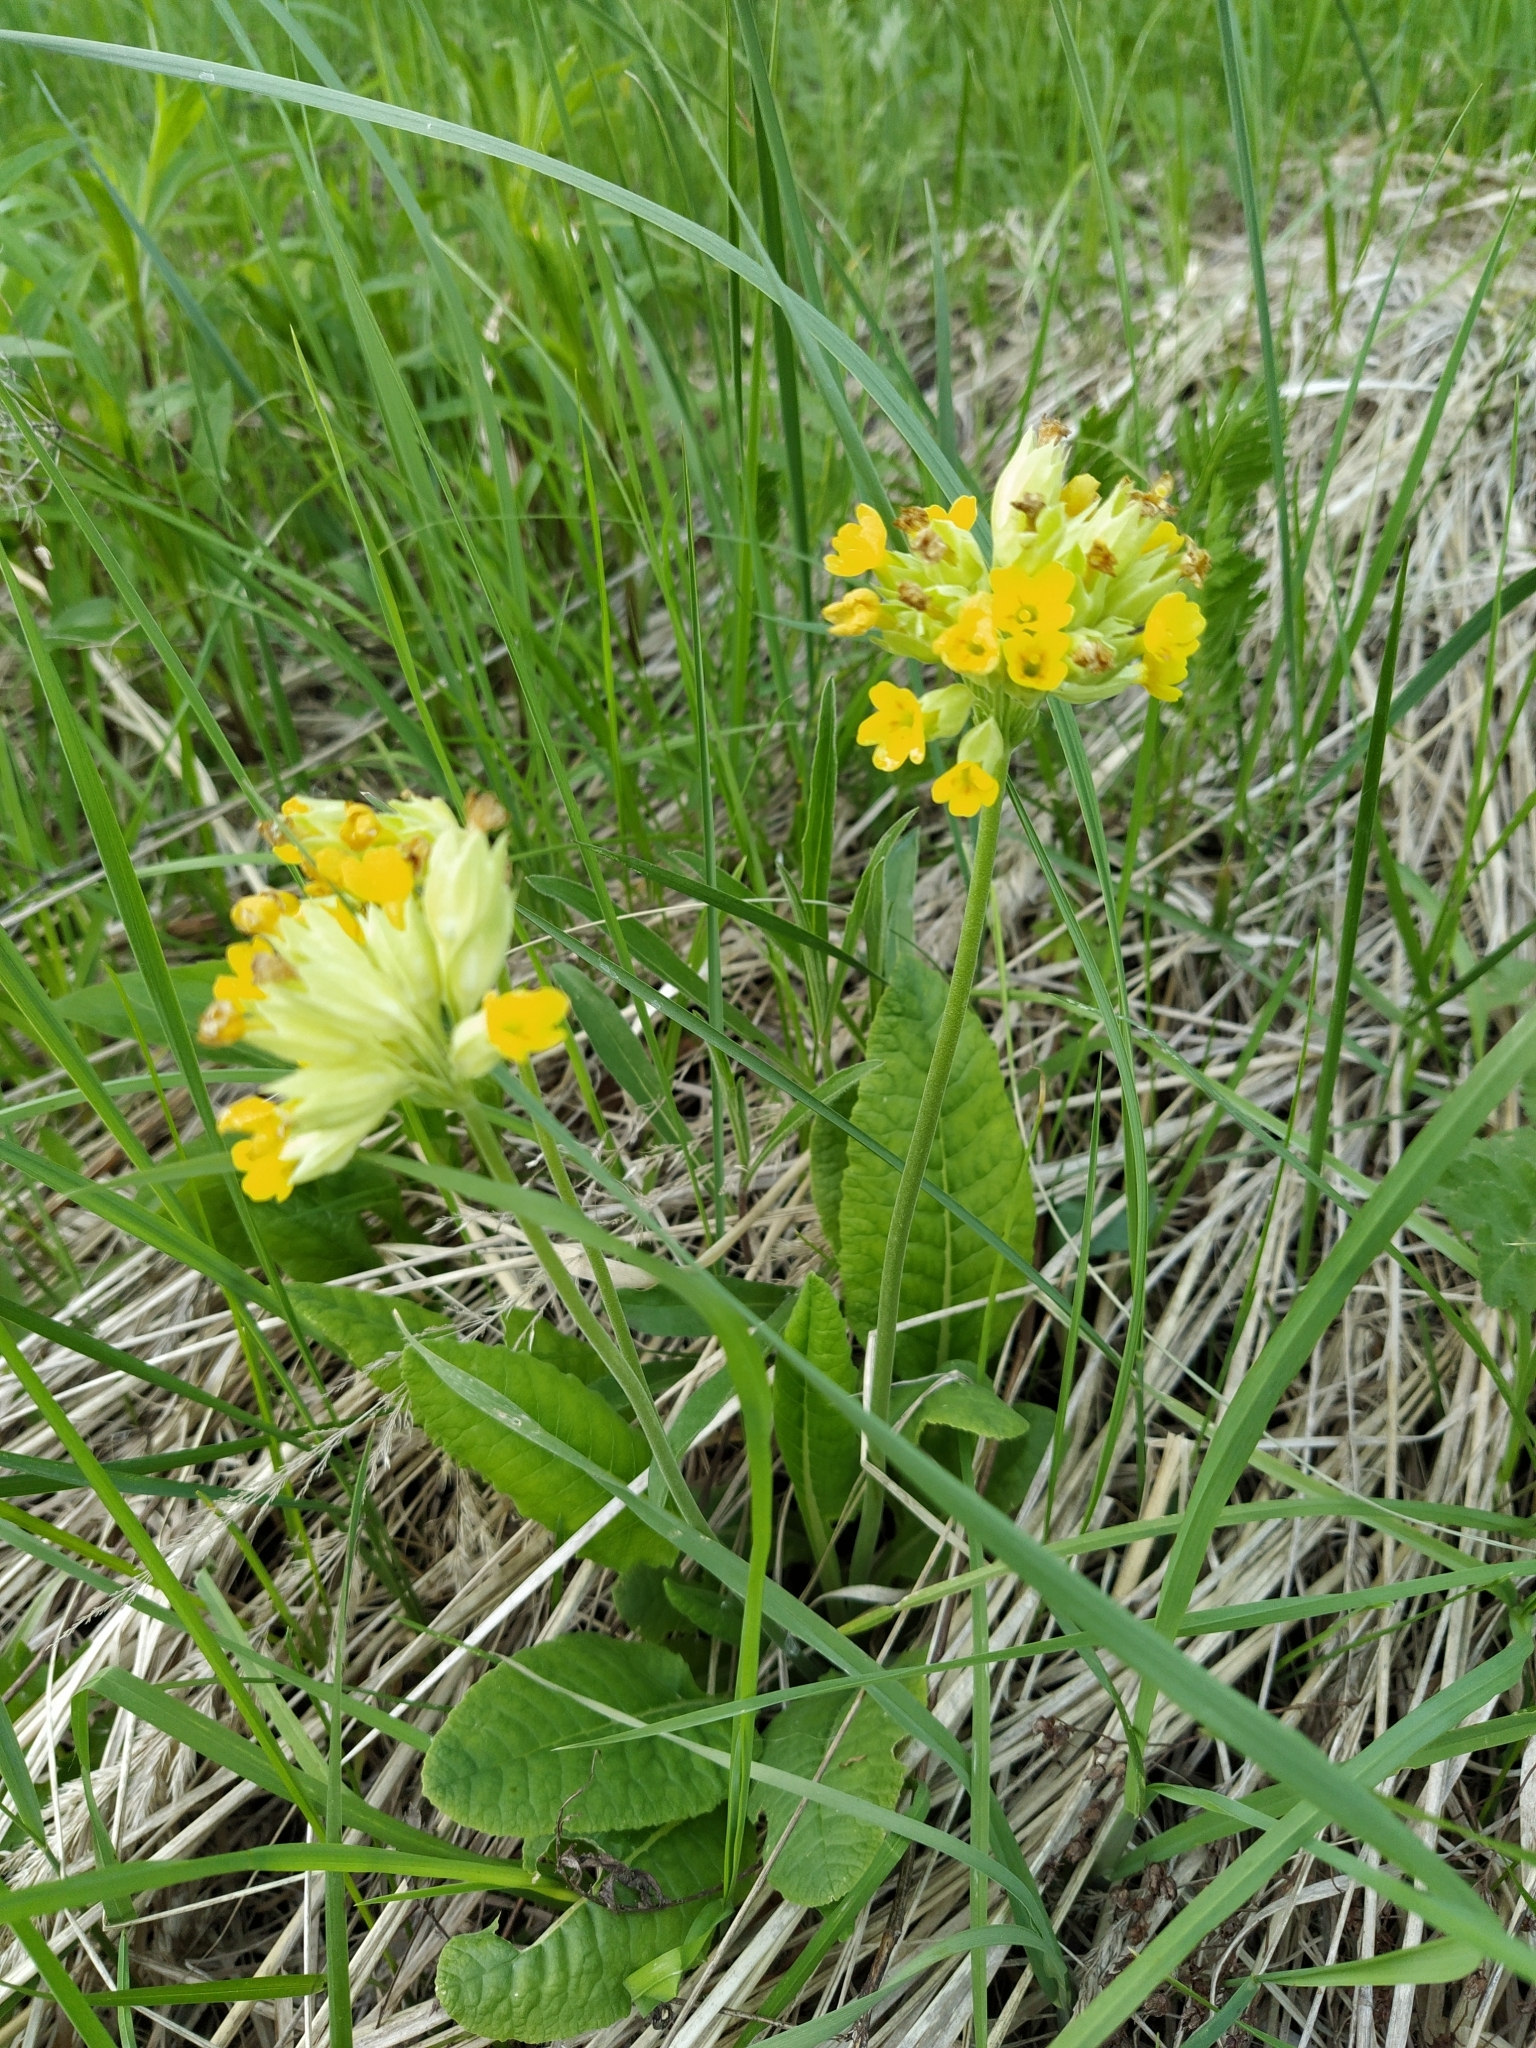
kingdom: Plantae
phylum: Tracheophyta
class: Magnoliopsida
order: Ericales
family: Primulaceae
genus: Primula
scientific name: Primula veris
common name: Cowslip
